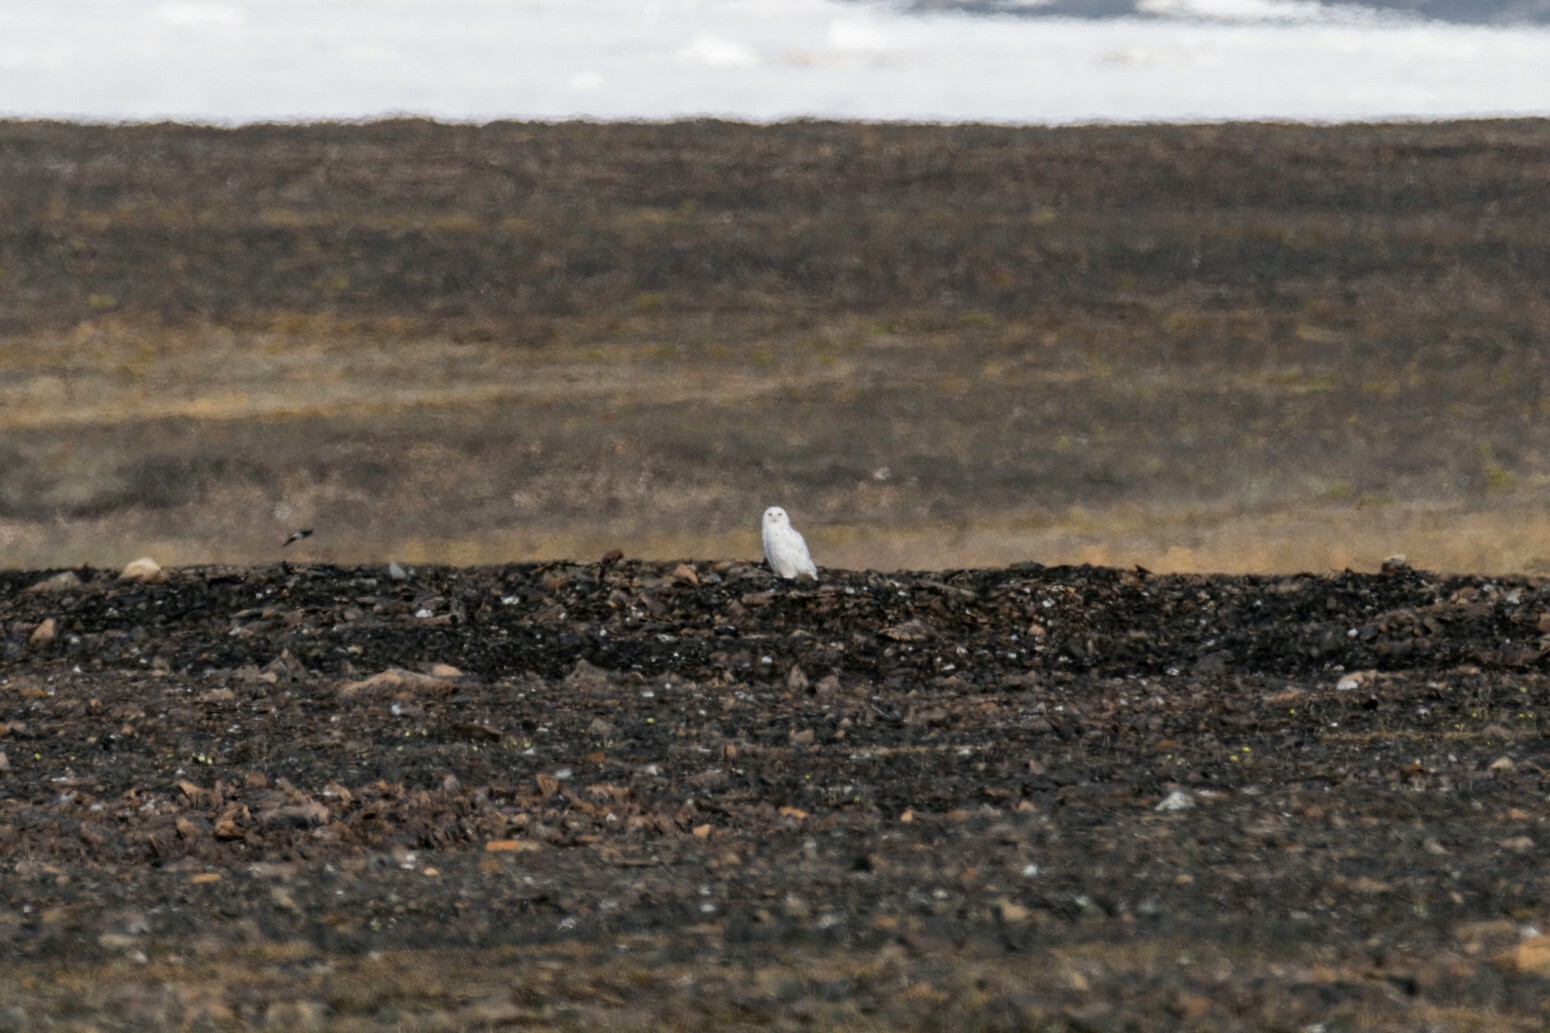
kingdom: Animalia
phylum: Chordata
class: Aves
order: Strigiformes
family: Strigidae
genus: Bubo
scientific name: Bubo scandiacus
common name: Snowy owl
